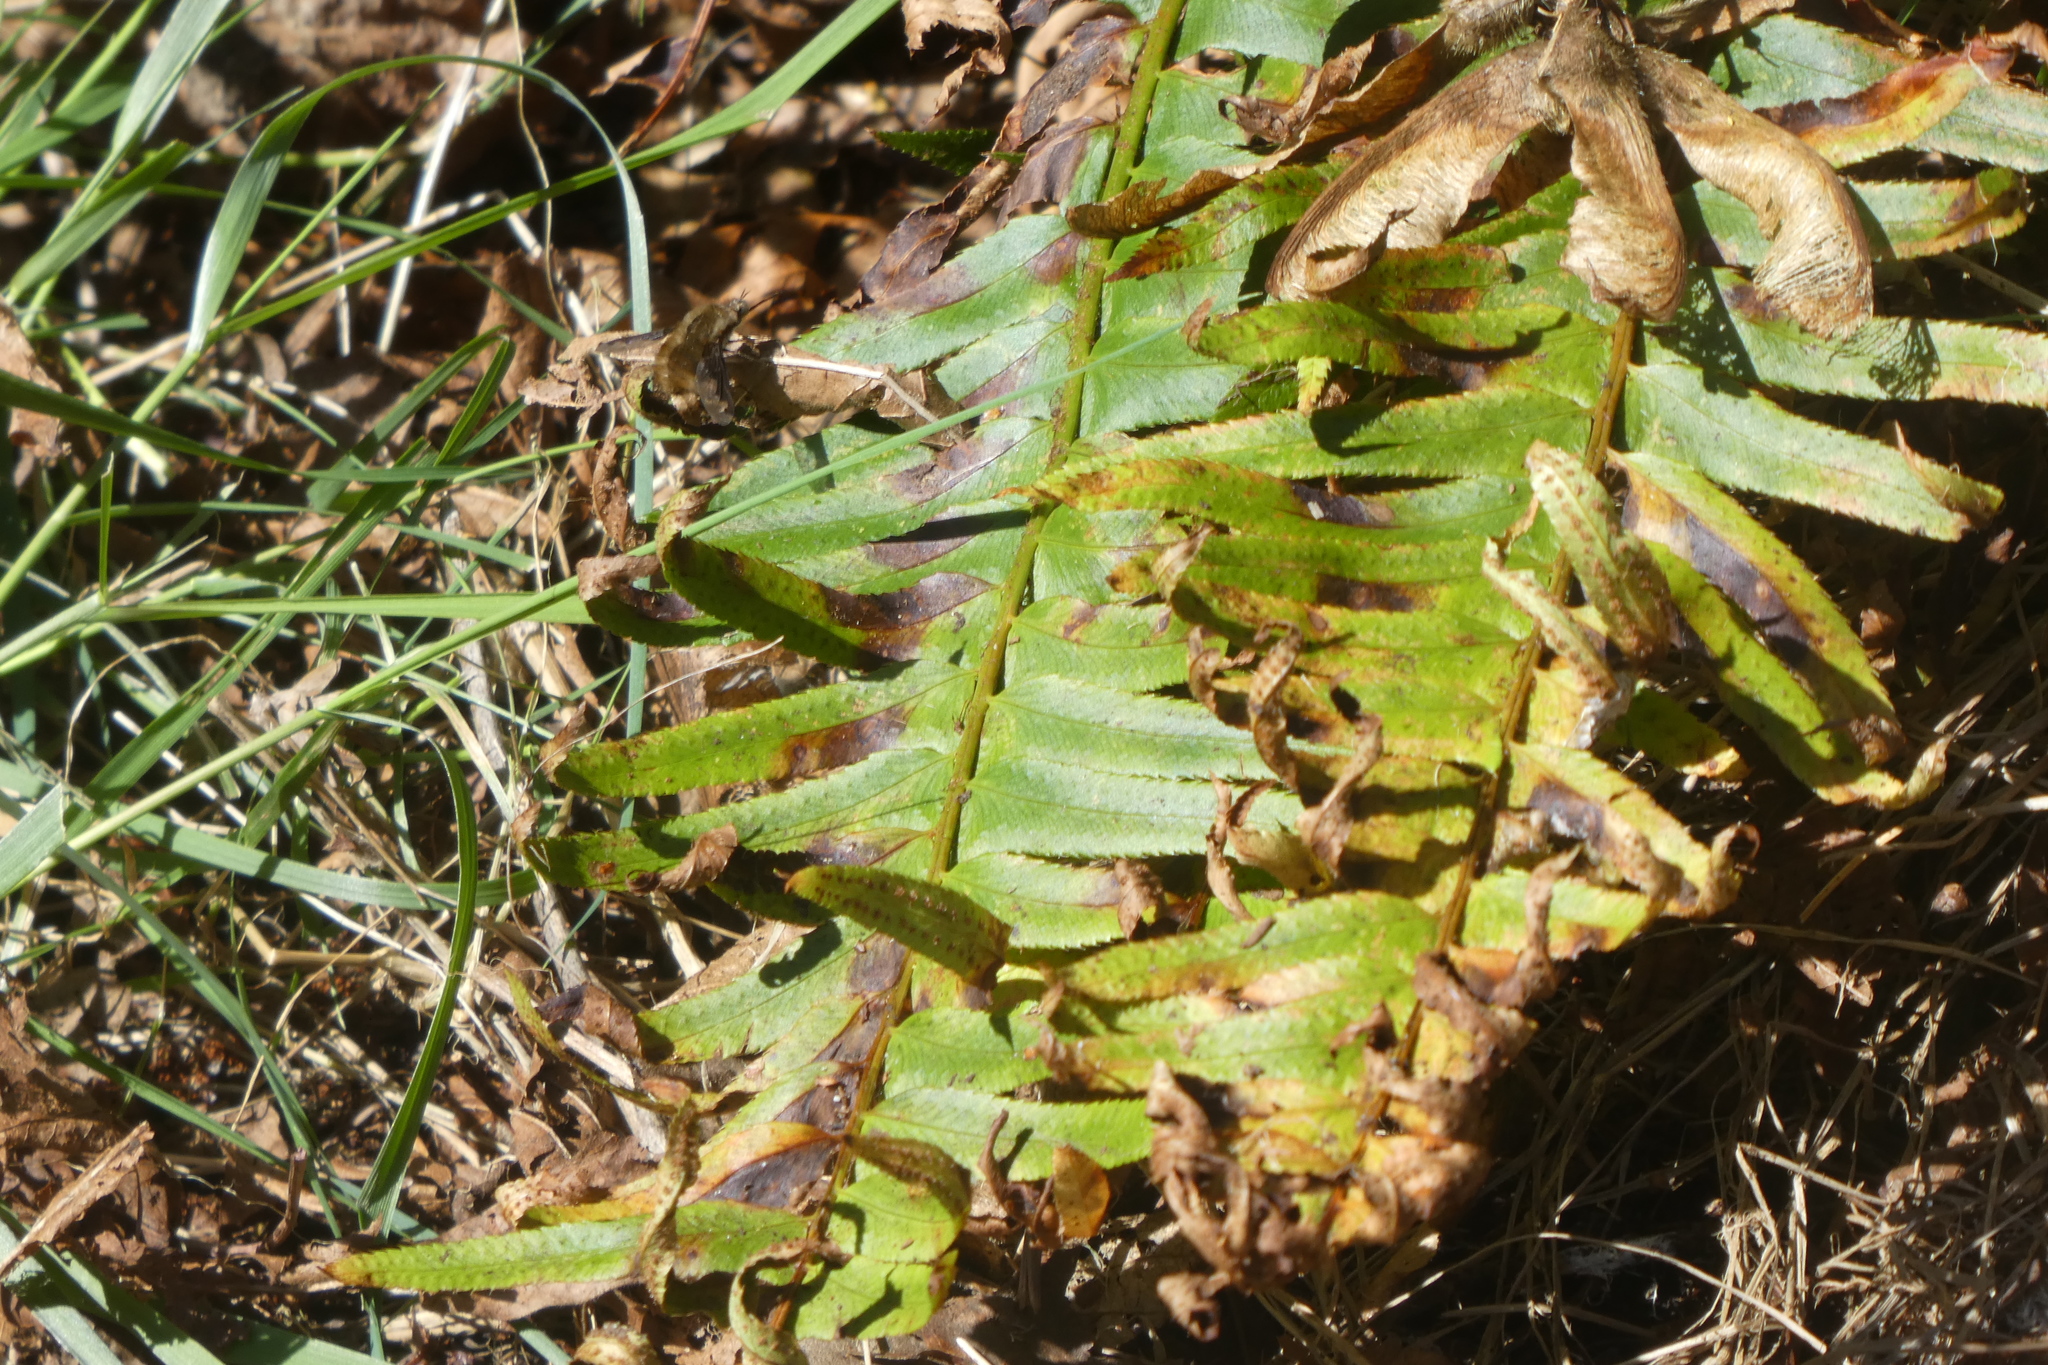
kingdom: Animalia
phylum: Arthropoda
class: Insecta
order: Diptera
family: Bombyliidae
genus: Bombylius
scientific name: Bombylius major
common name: Bee fly
